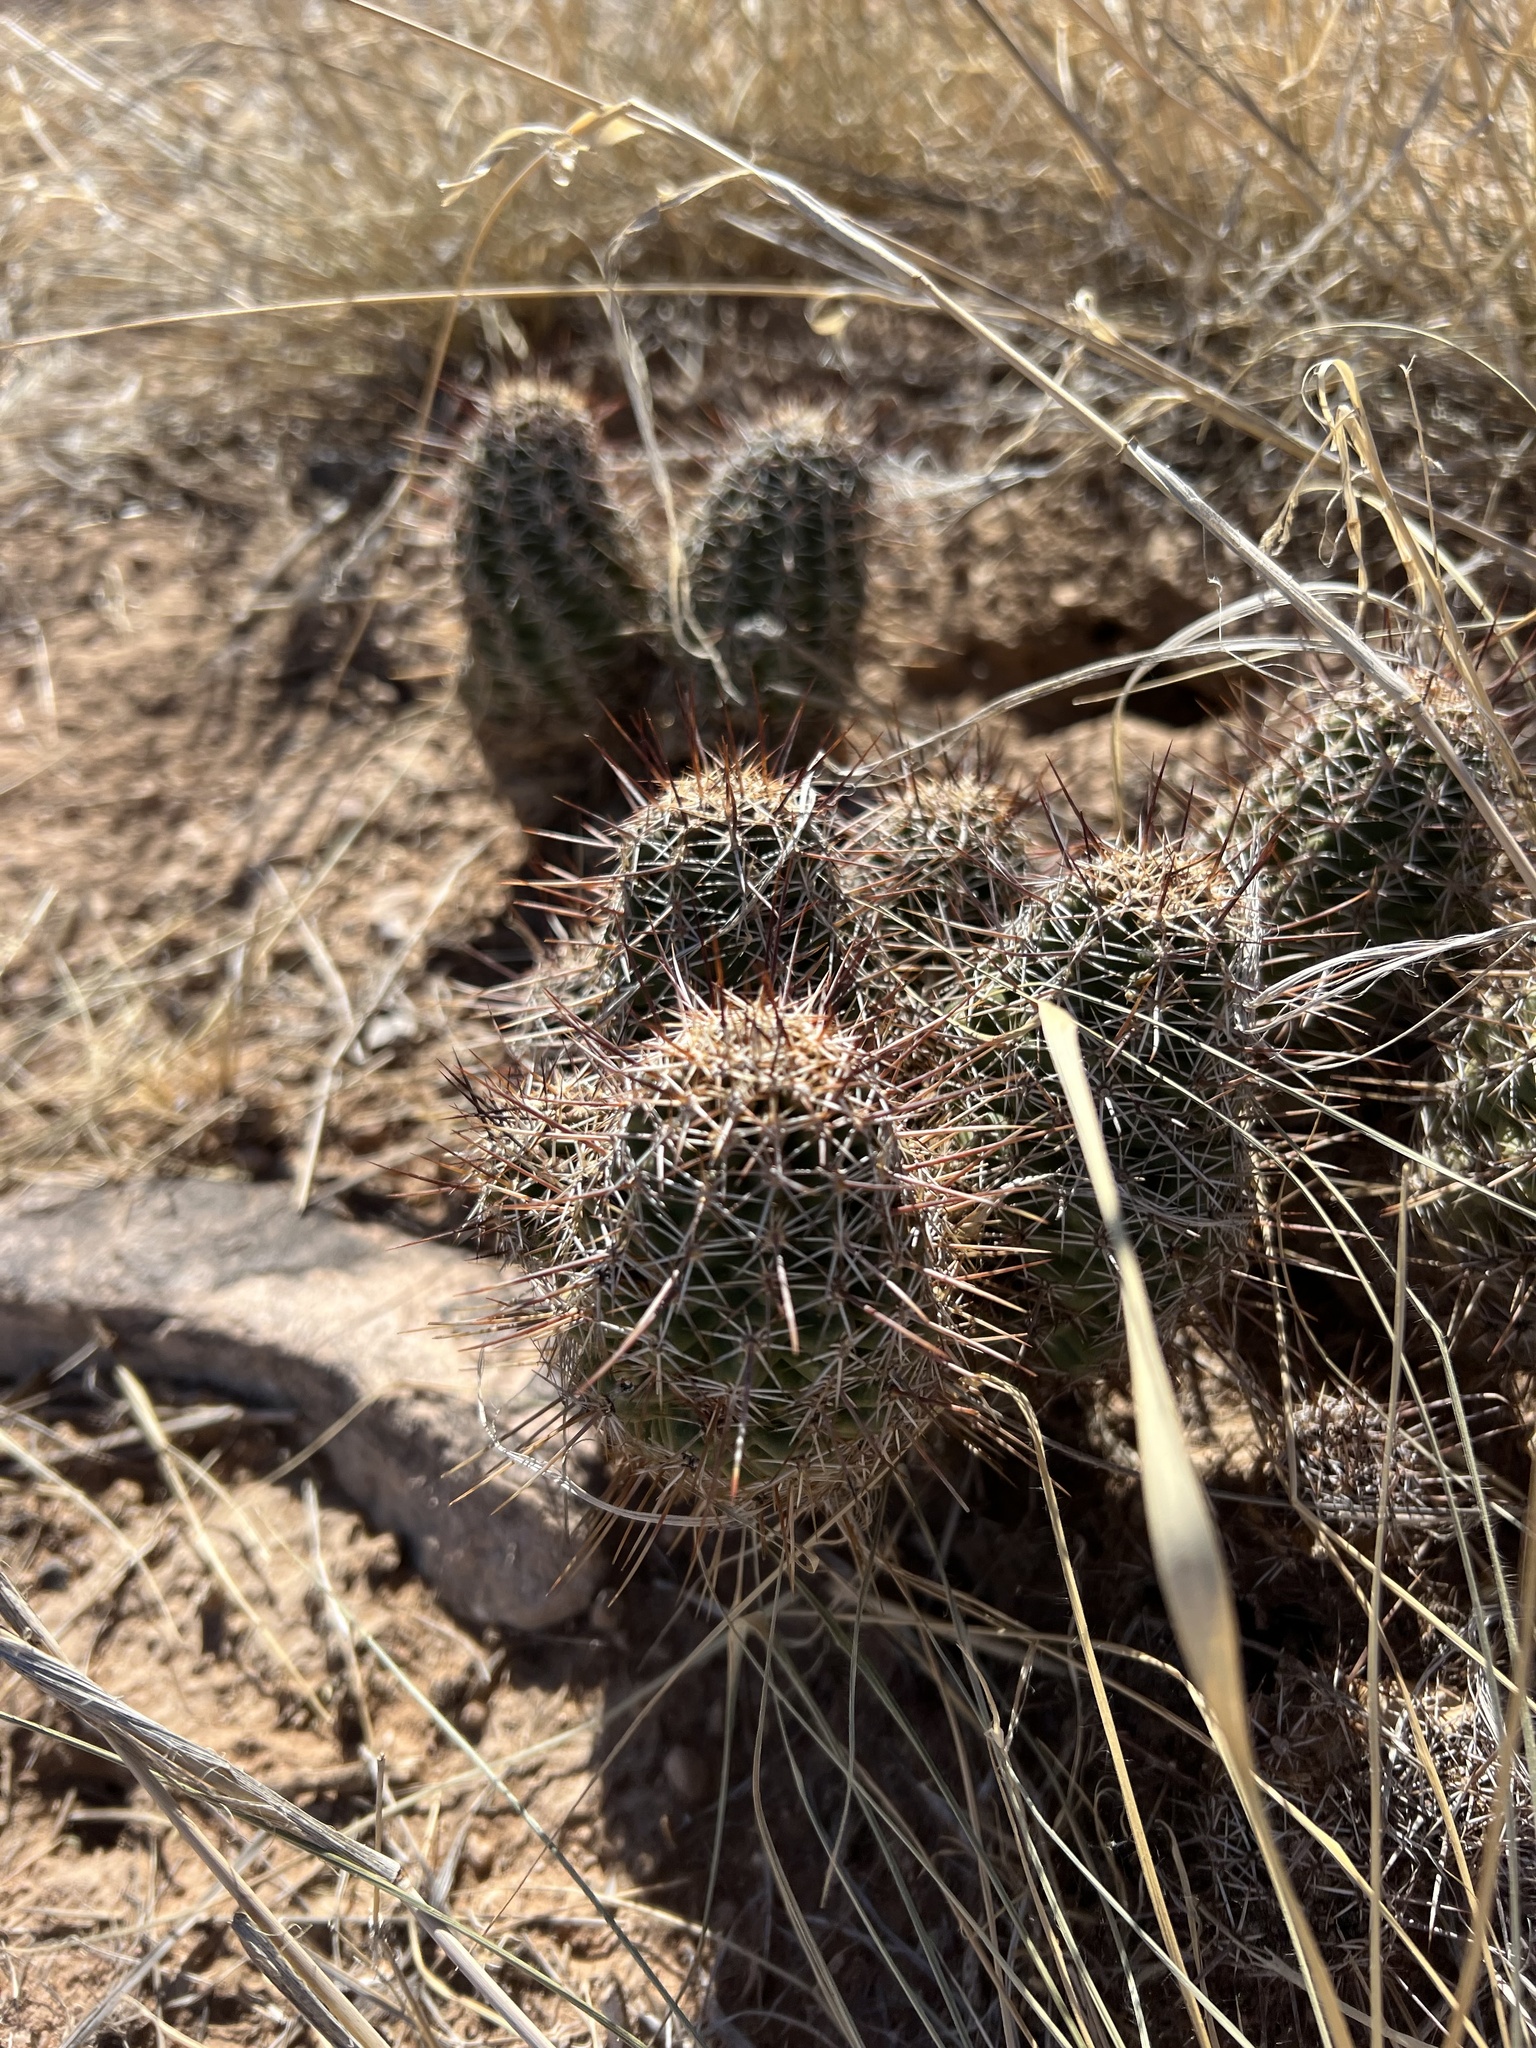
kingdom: Plantae
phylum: Tracheophyta
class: Magnoliopsida
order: Caryophyllales
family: Cactaceae
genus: Echinocereus
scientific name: Echinocereus fendleri
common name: Fendler's hedgehog cactus
